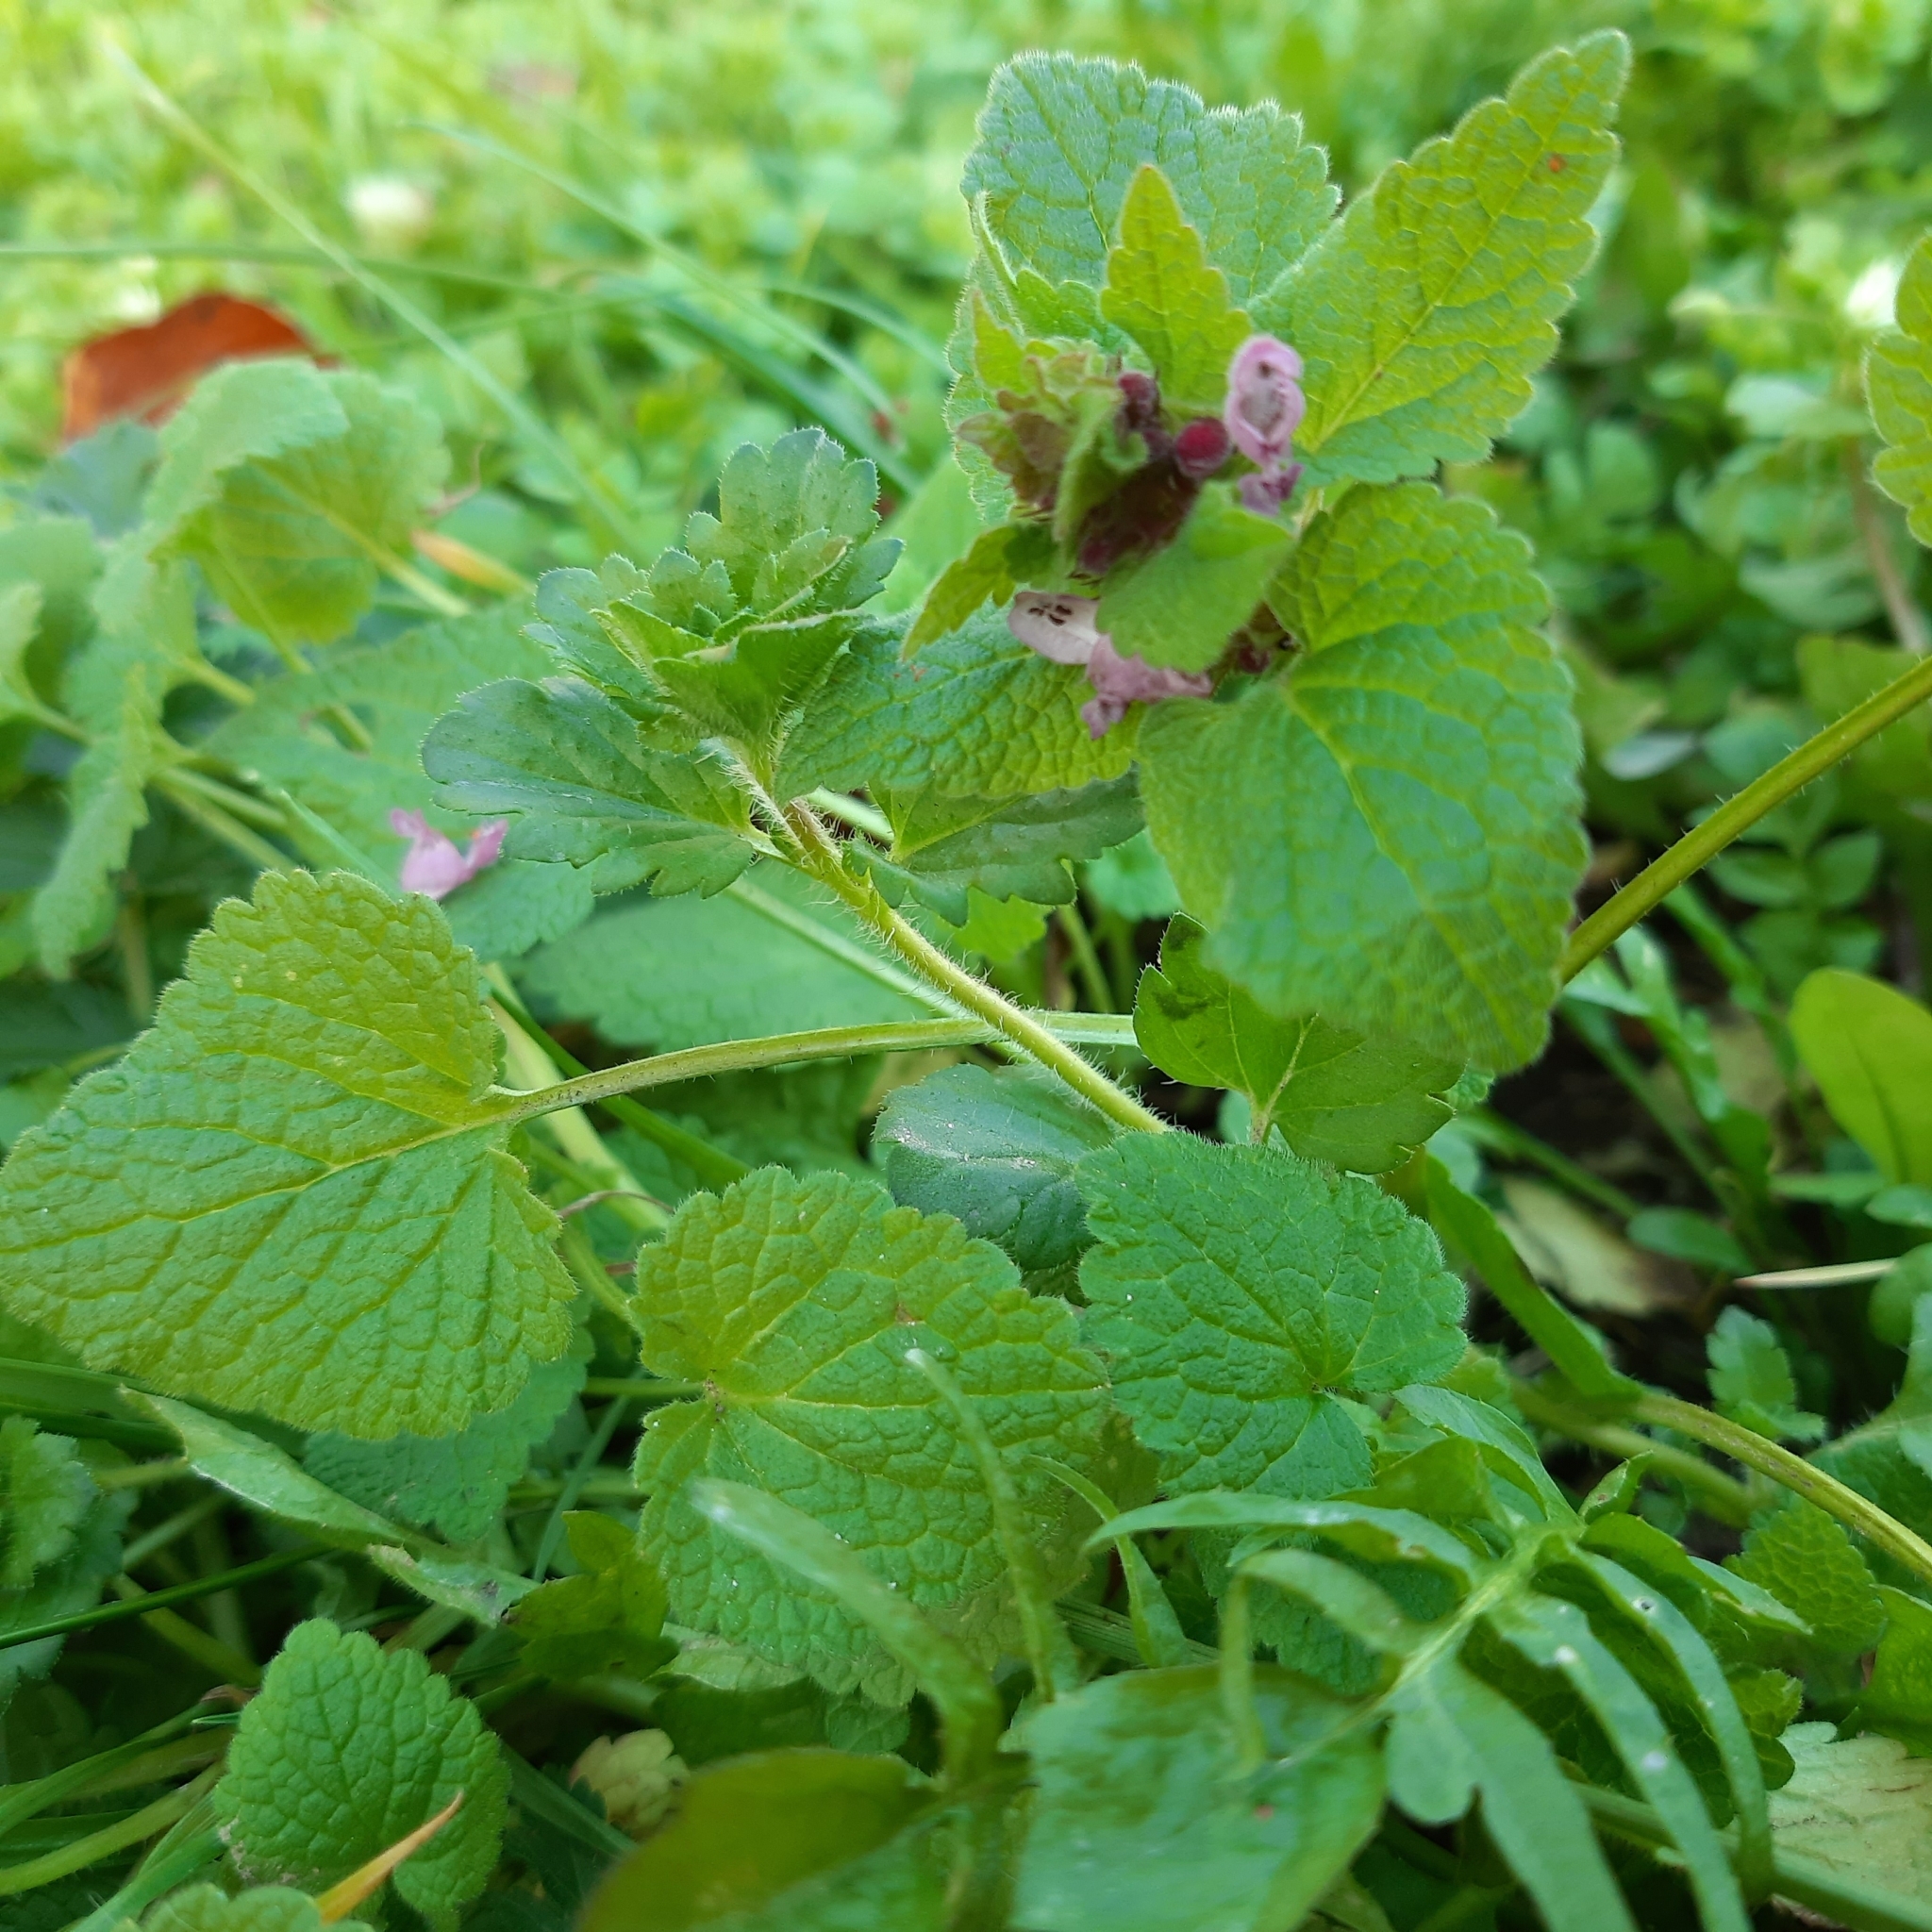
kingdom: Plantae
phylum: Tracheophyta
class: Magnoliopsida
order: Lamiales
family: Lamiaceae
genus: Lamium
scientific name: Lamium purpureum
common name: Red dead-nettle
